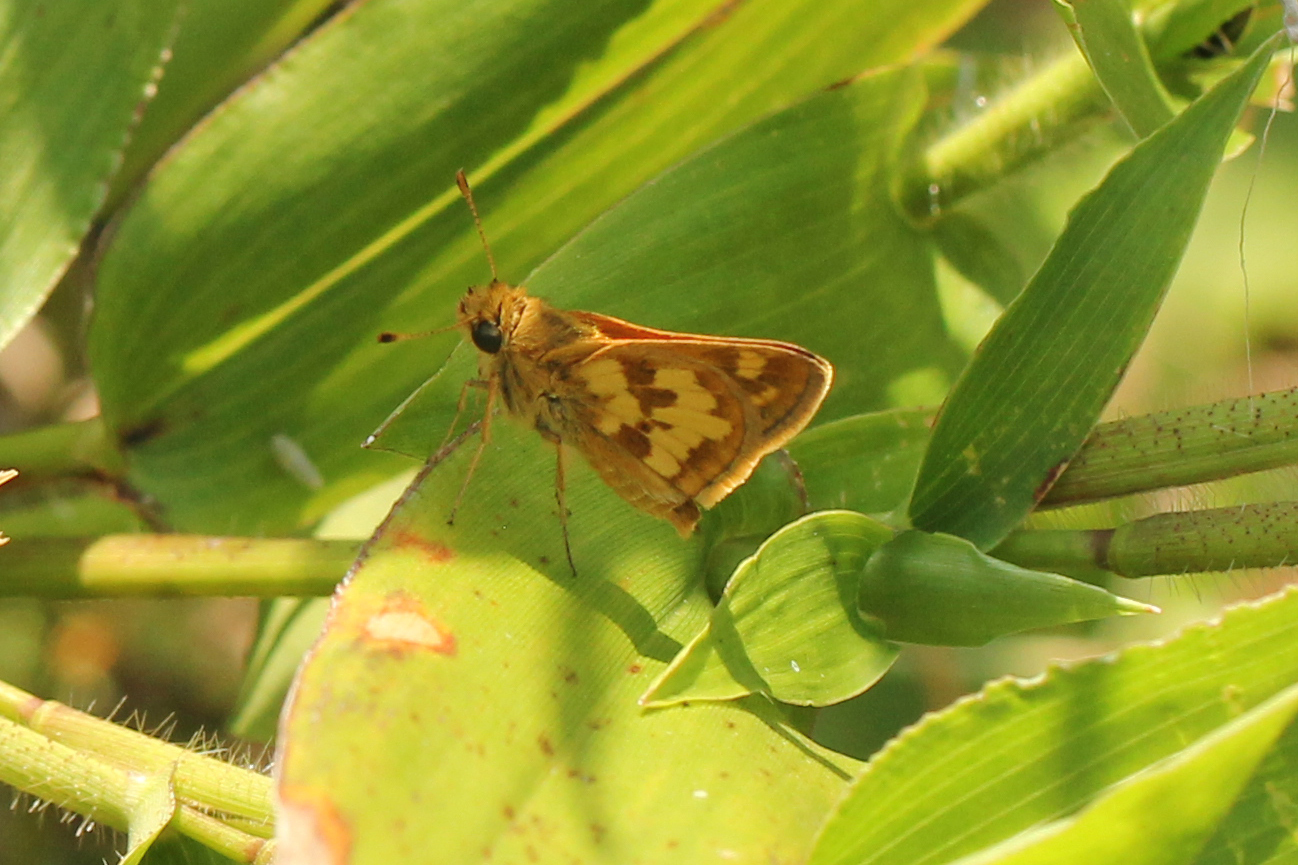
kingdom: Animalia
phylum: Arthropoda
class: Insecta
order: Lepidoptera
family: Hesperiidae
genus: Polites
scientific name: Polites coras
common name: Peck's skipper
